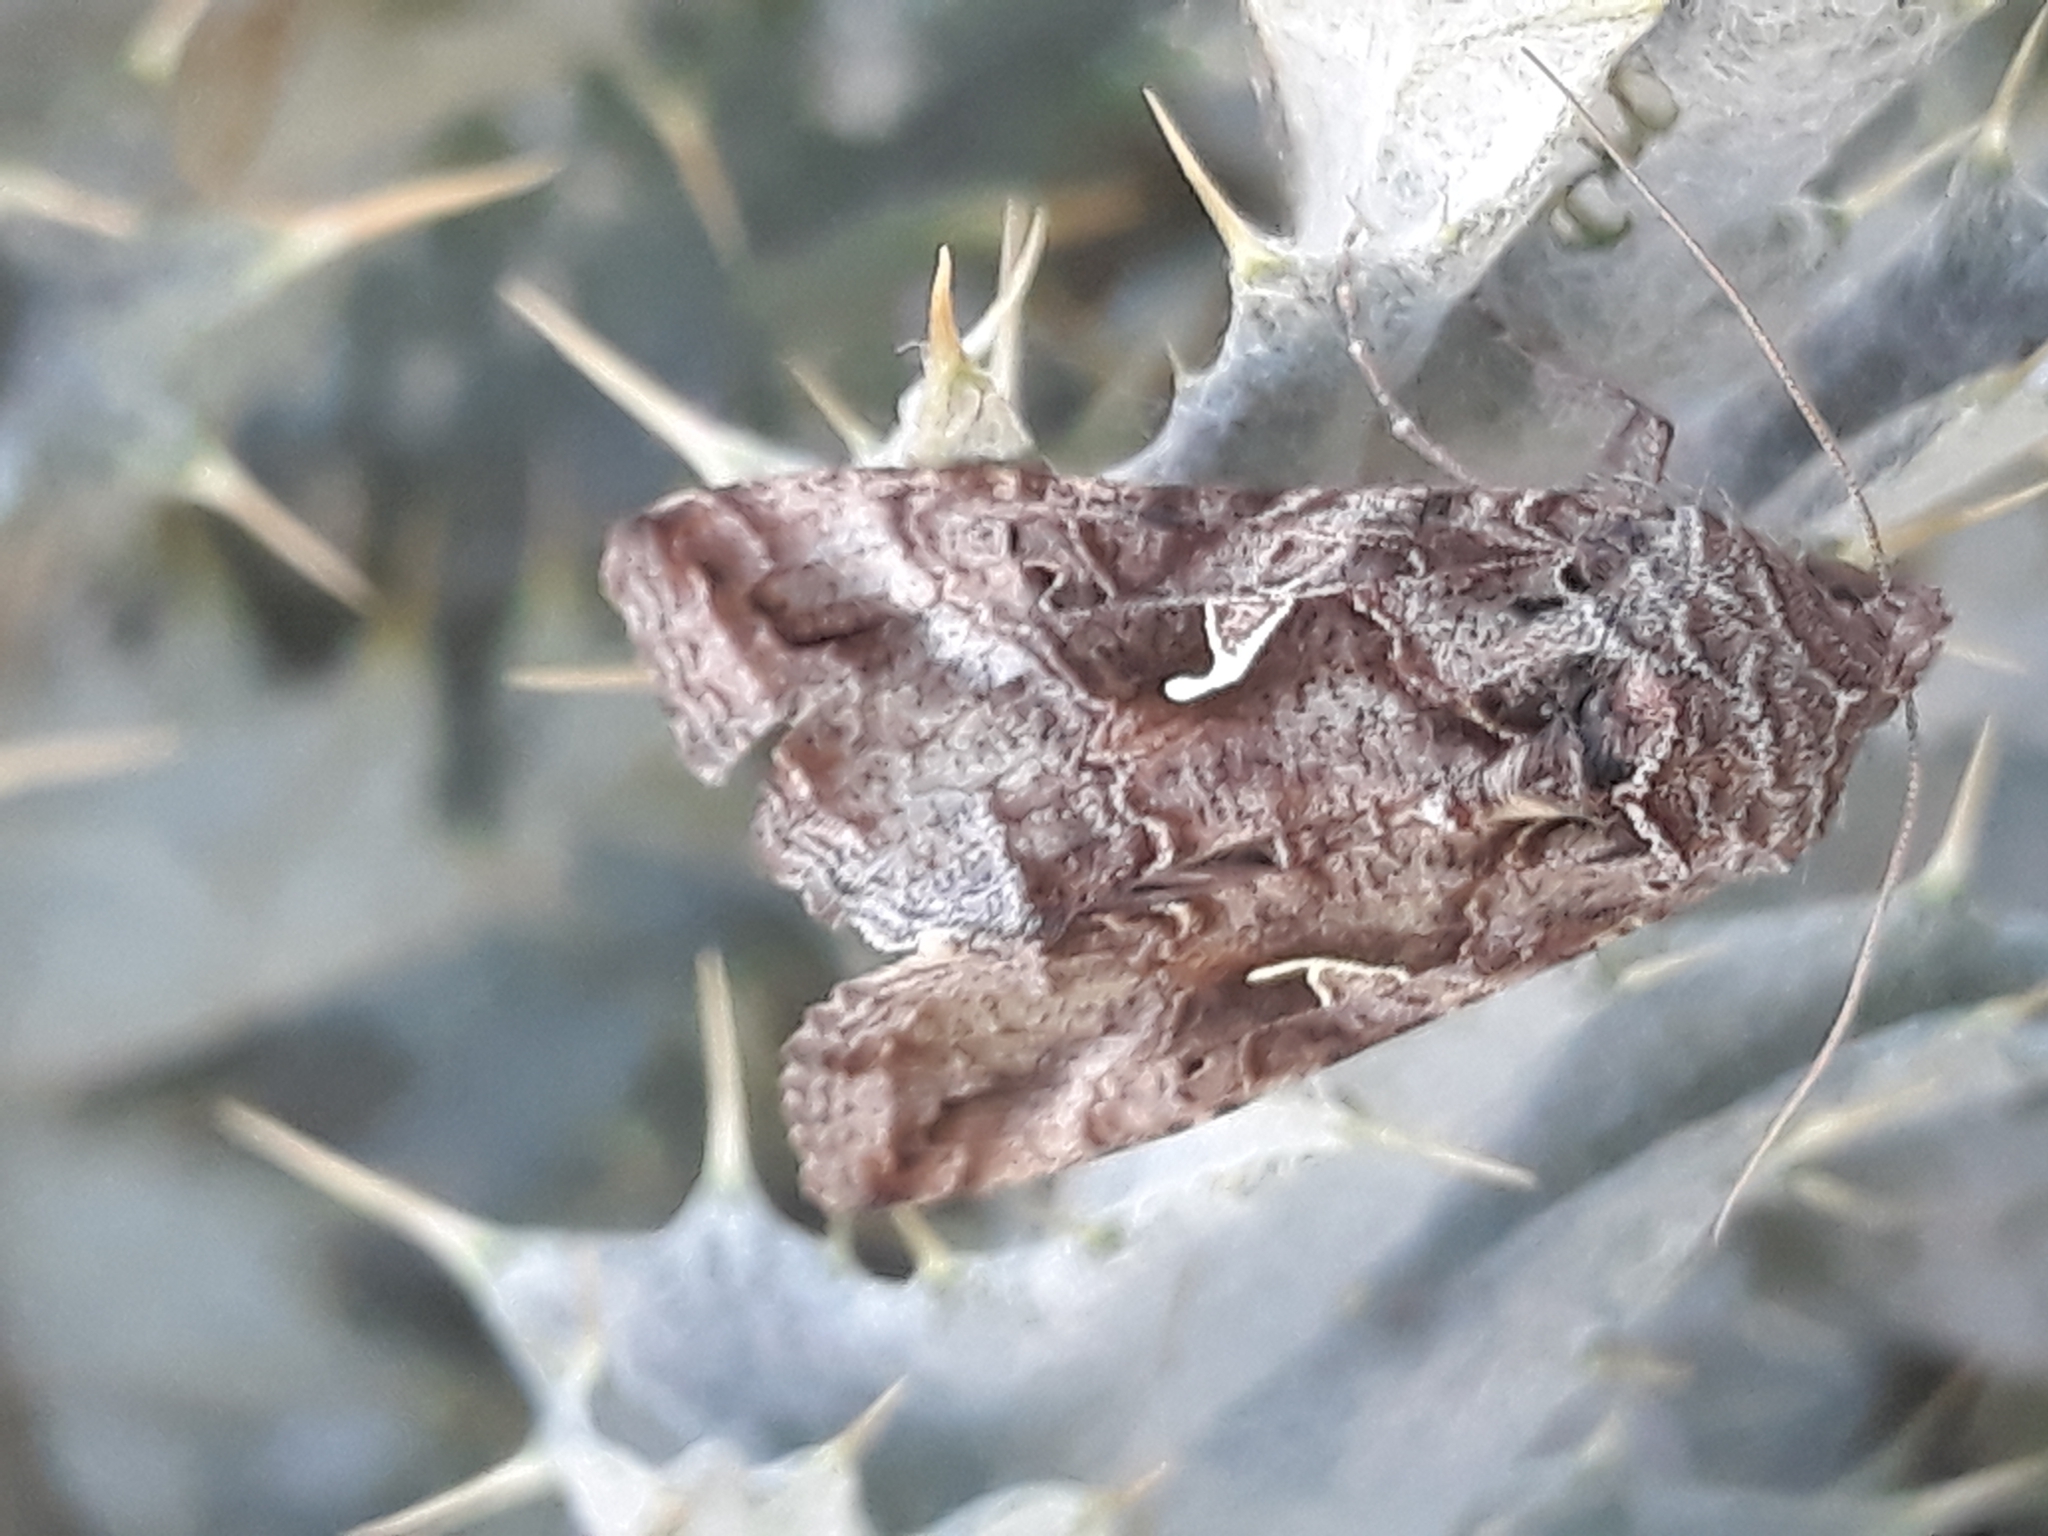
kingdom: Animalia
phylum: Arthropoda
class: Insecta
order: Lepidoptera
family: Noctuidae
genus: Autographa
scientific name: Autographa gamma
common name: Silver y
